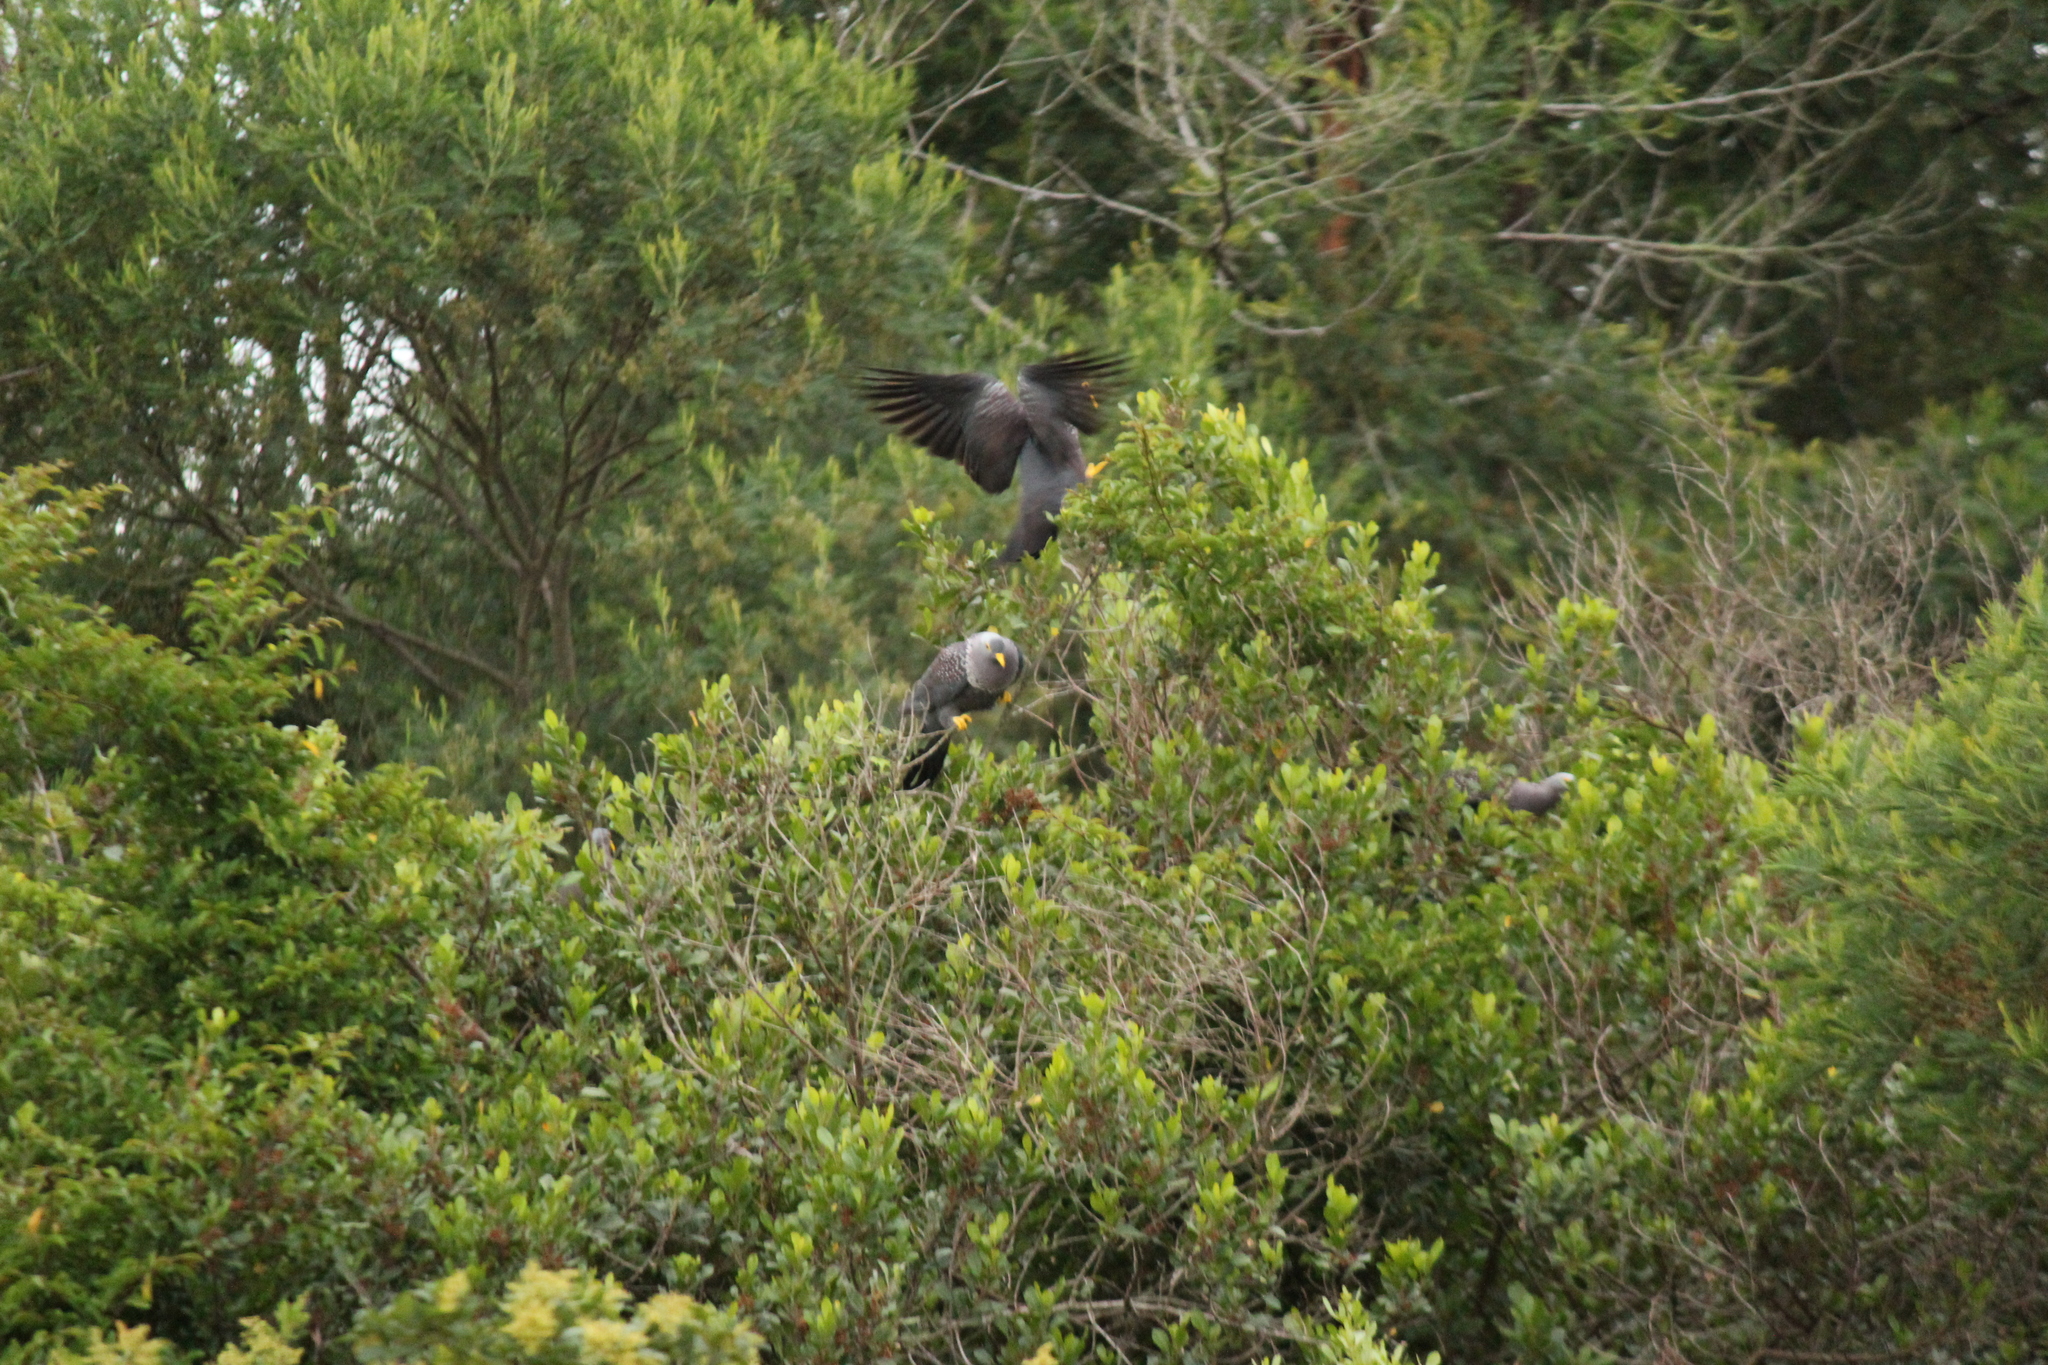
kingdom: Animalia
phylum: Chordata
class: Aves
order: Columbiformes
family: Columbidae
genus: Columba
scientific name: Columba arquatrix
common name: African olive pigeon
